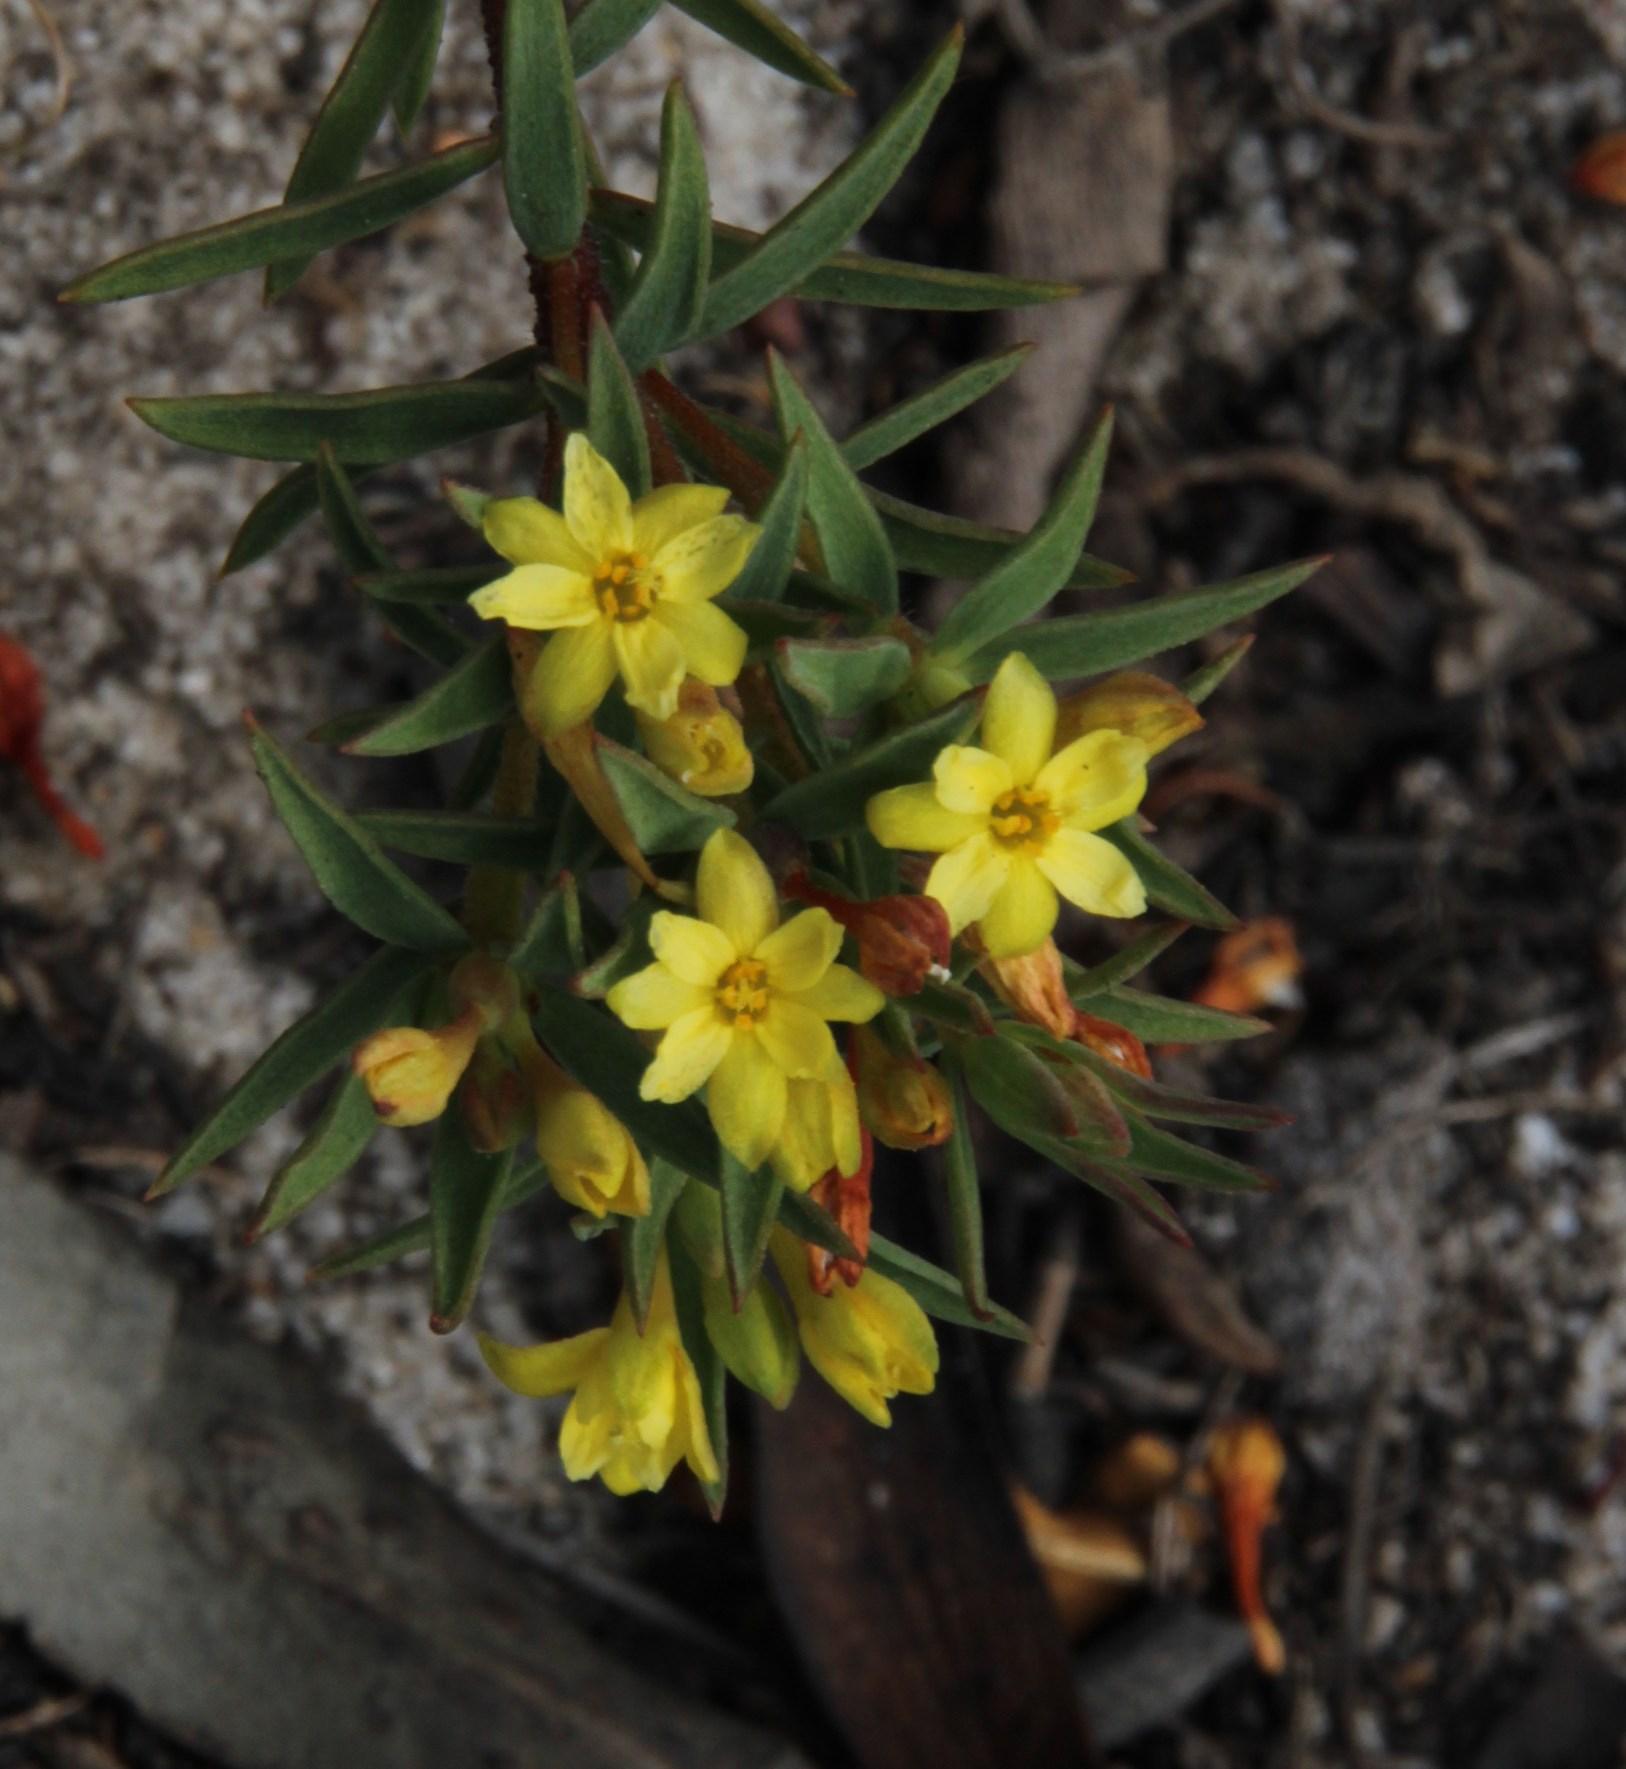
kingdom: Plantae
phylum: Tracheophyta
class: Magnoliopsida
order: Malvales
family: Thymelaeaceae
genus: Gnidia
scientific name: Gnidia juniperifolia
